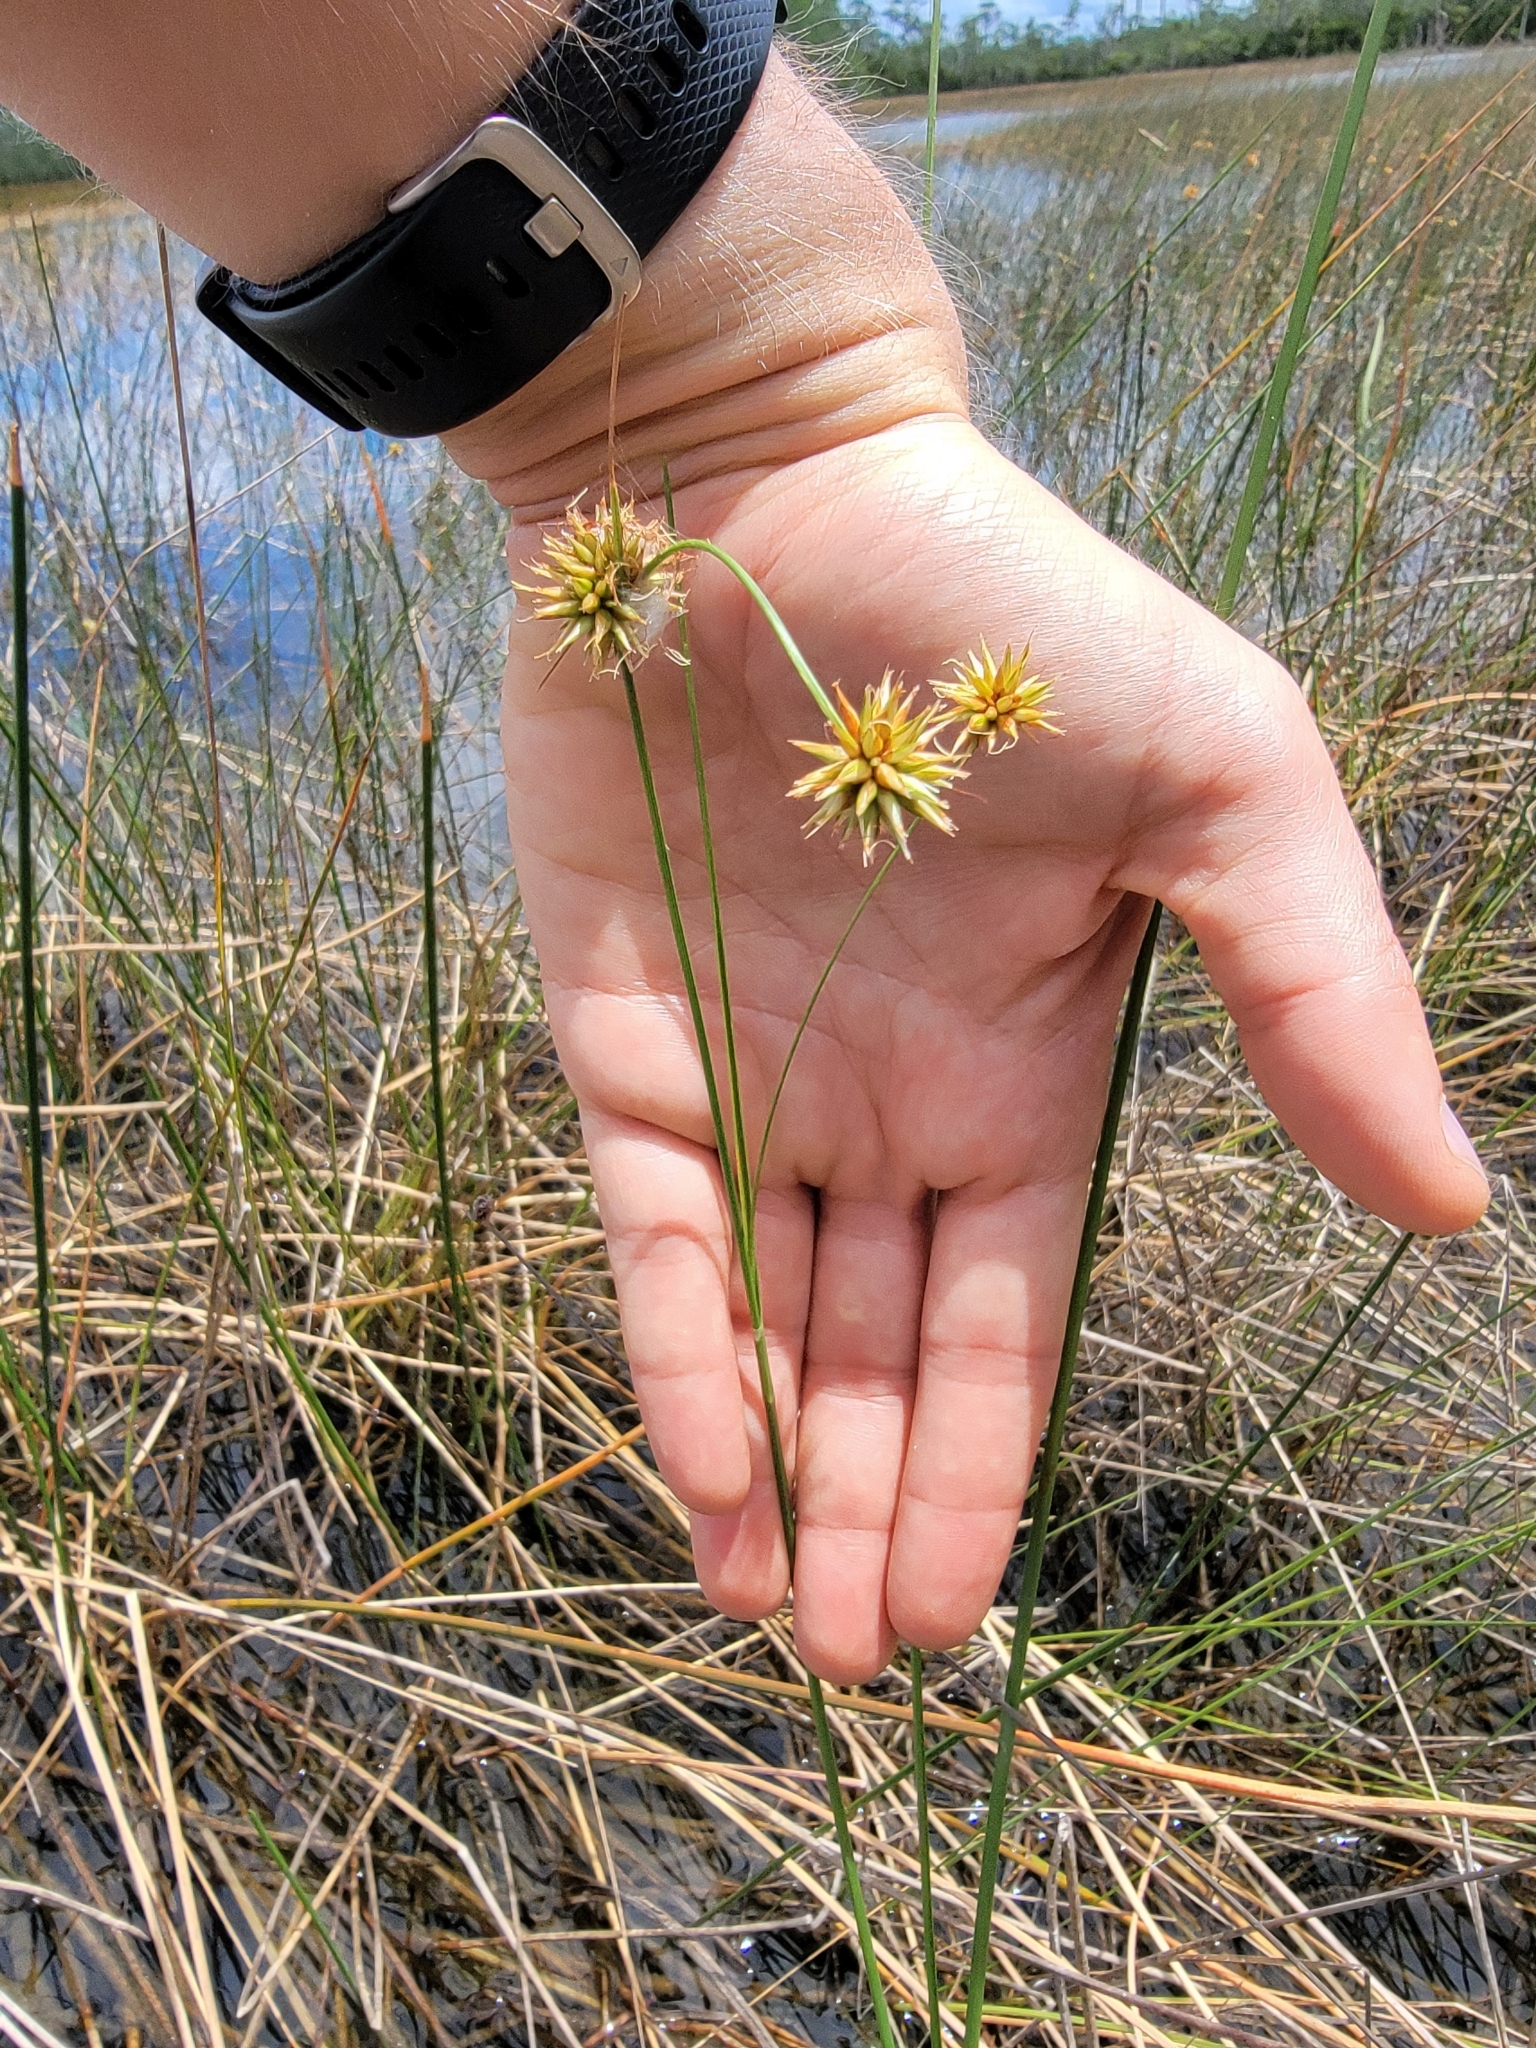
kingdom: Plantae
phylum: Tracheophyta
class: Liliopsida
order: Poales
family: Cyperaceae
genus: Rhynchospora
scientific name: Rhynchospora tracyi
